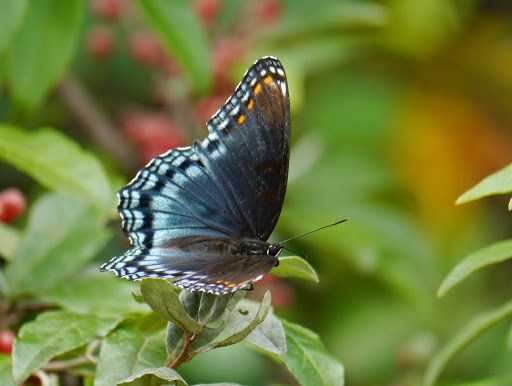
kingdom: Animalia
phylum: Arthropoda
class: Insecta
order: Lepidoptera
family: Nymphalidae
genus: Limenitis
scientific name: Limenitis arthemis
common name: Red-spotted admiral
